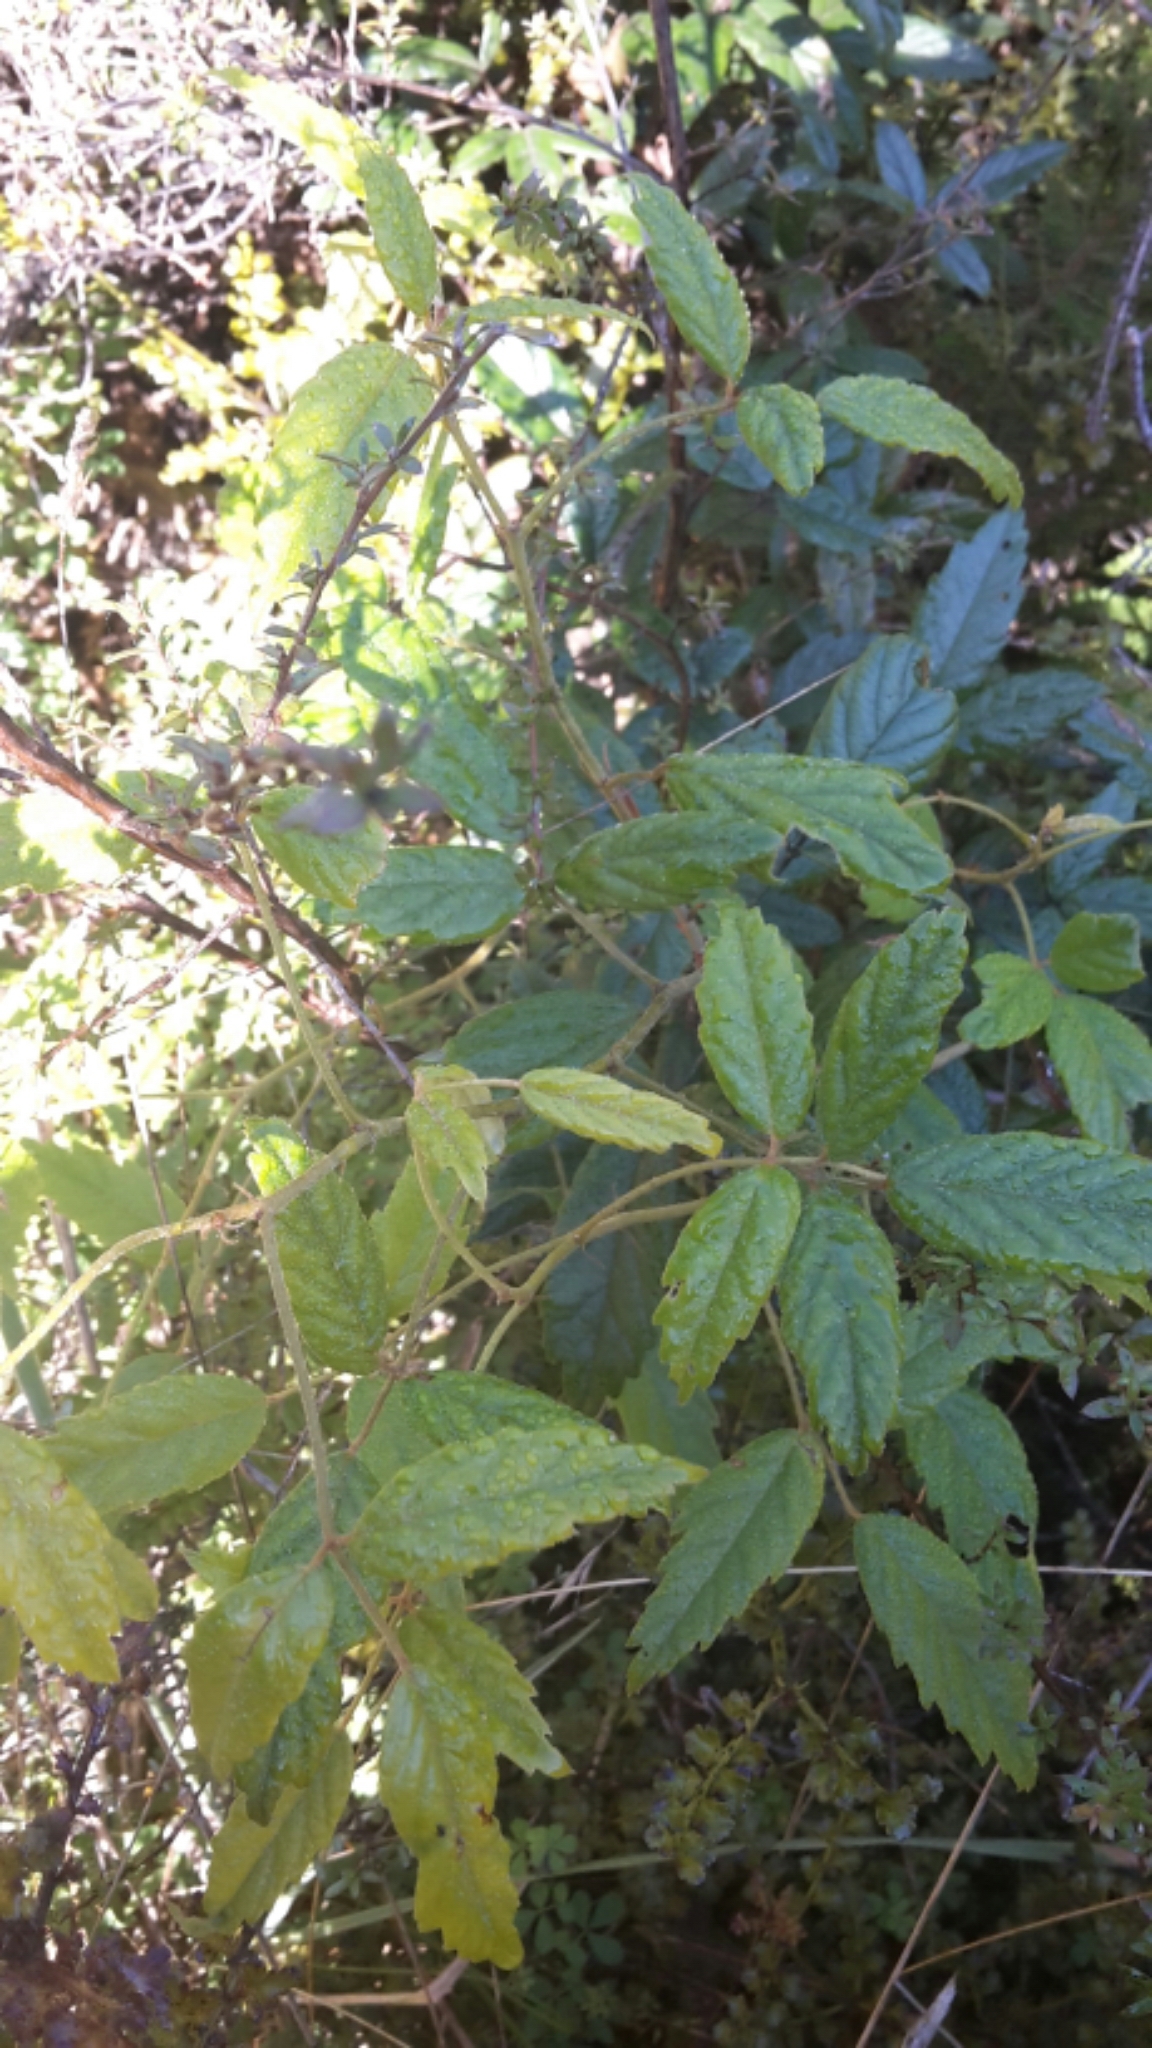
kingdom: Plantae
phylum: Tracheophyta
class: Magnoliopsida
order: Rosales
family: Rosaceae
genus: Rubus
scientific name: Rubus schmidelioides
